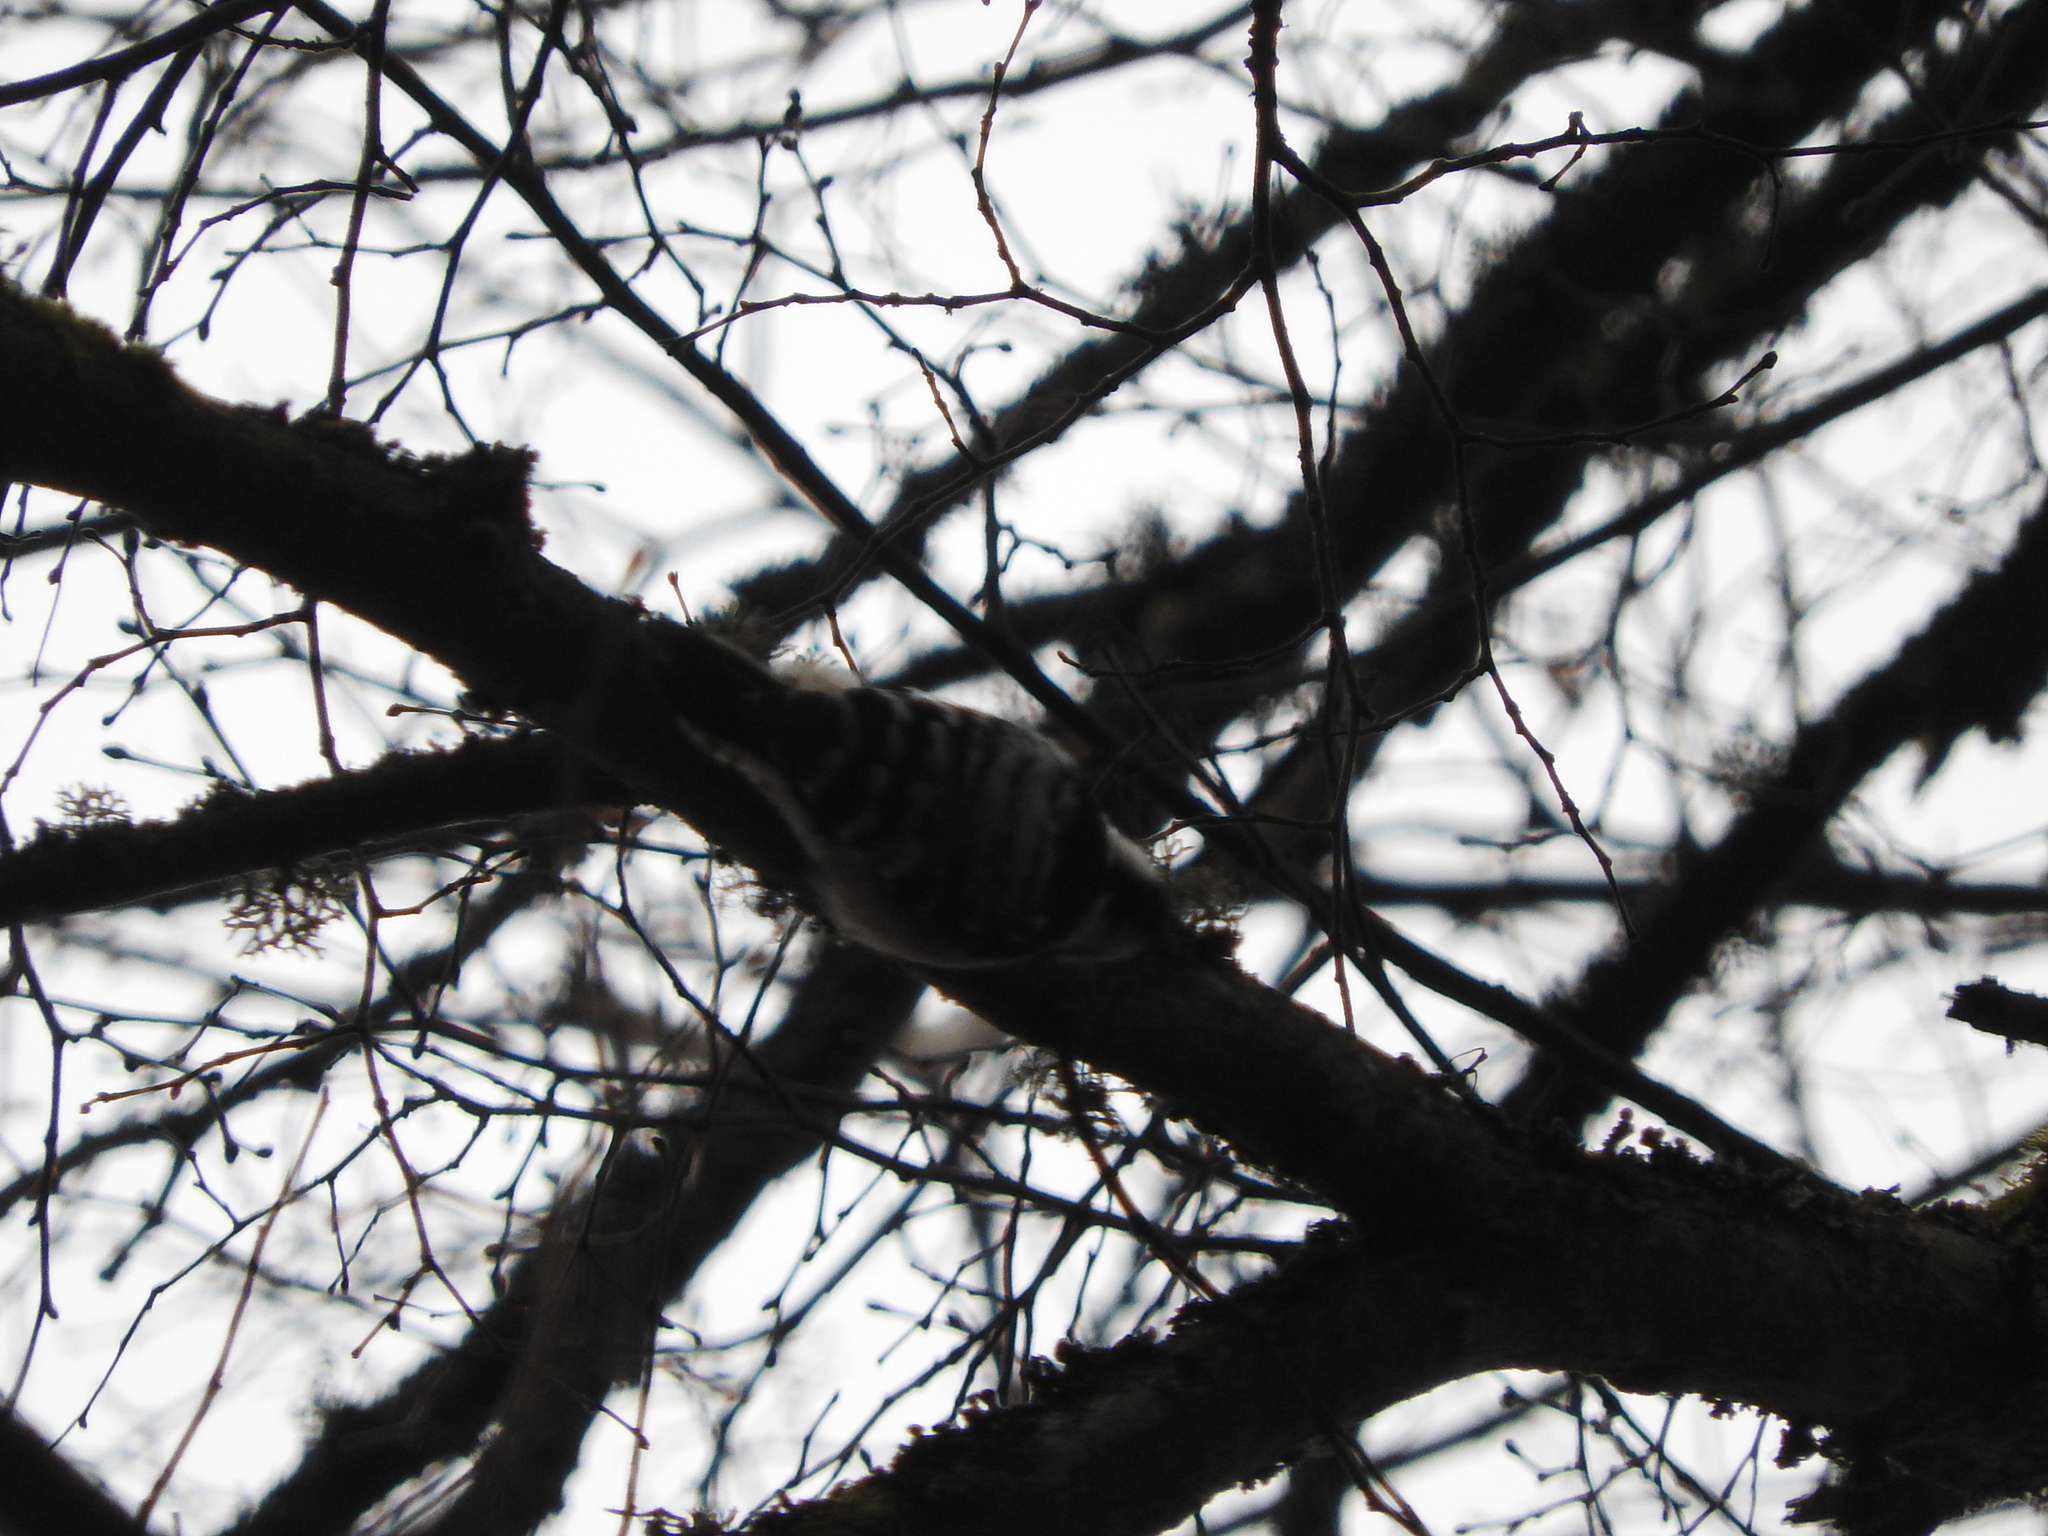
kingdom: Animalia
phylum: Chordata
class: Aves
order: Piciformes
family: Picidae
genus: Dryobates
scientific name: Dryobates minor
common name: Lesser spotted woodpecker
